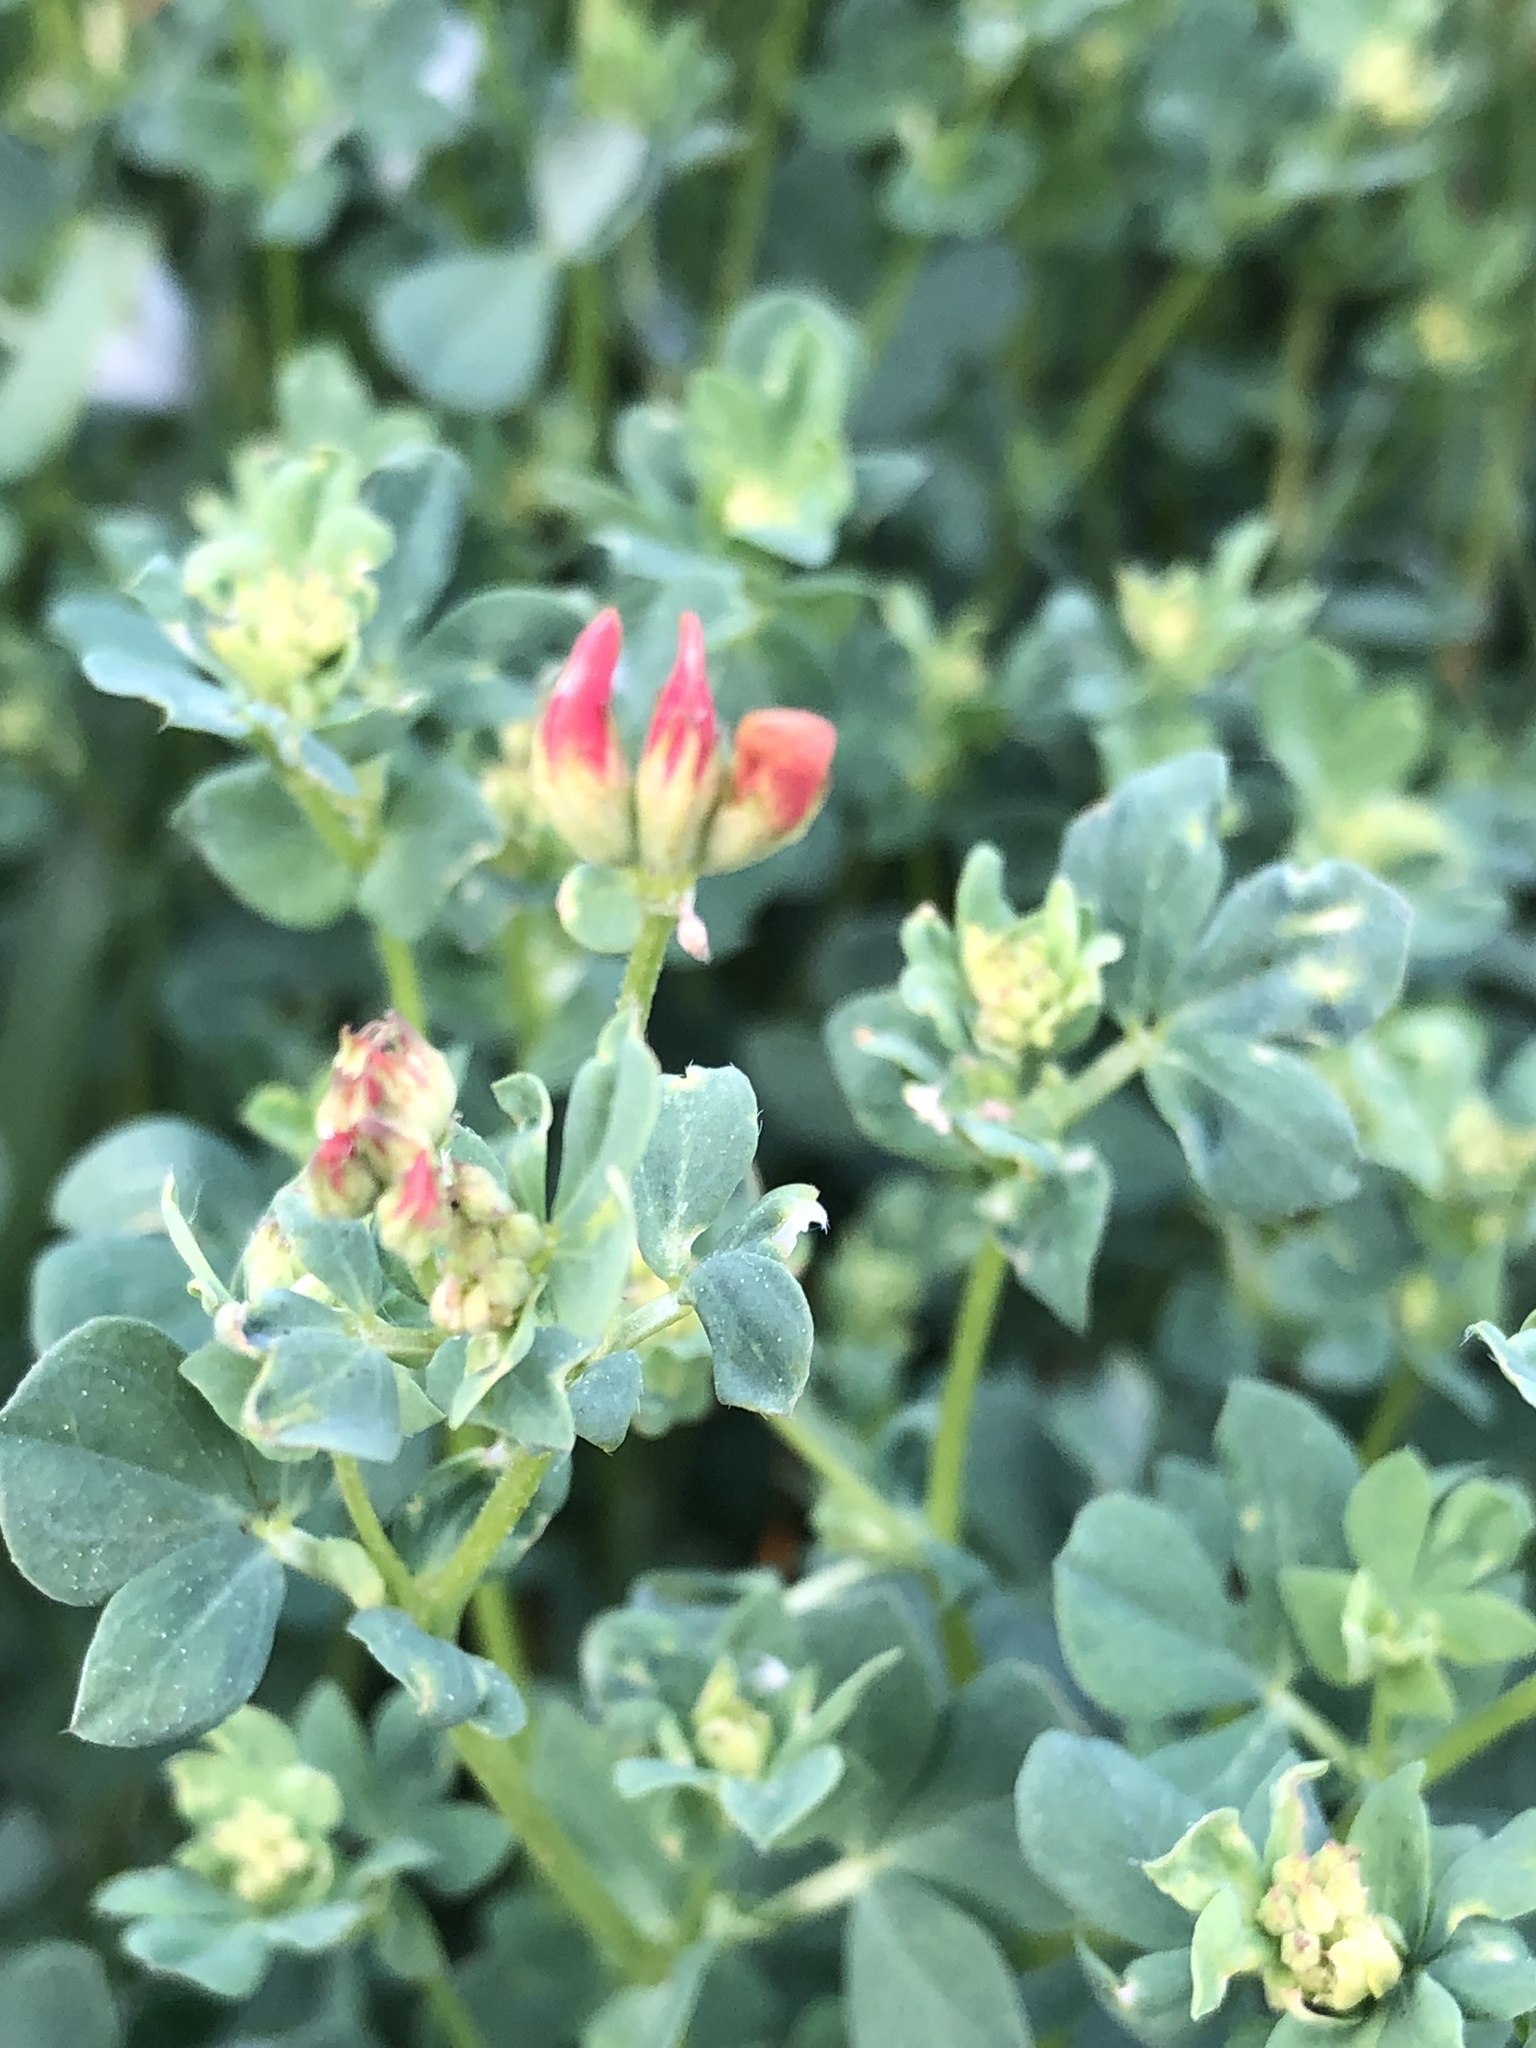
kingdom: Plantae
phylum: Tracheophyta
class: Magnoliopsida
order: Fabales
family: Fabaceae
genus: Lotus
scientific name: Lotus corniculatus
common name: Common bird's-foot-trefoil
